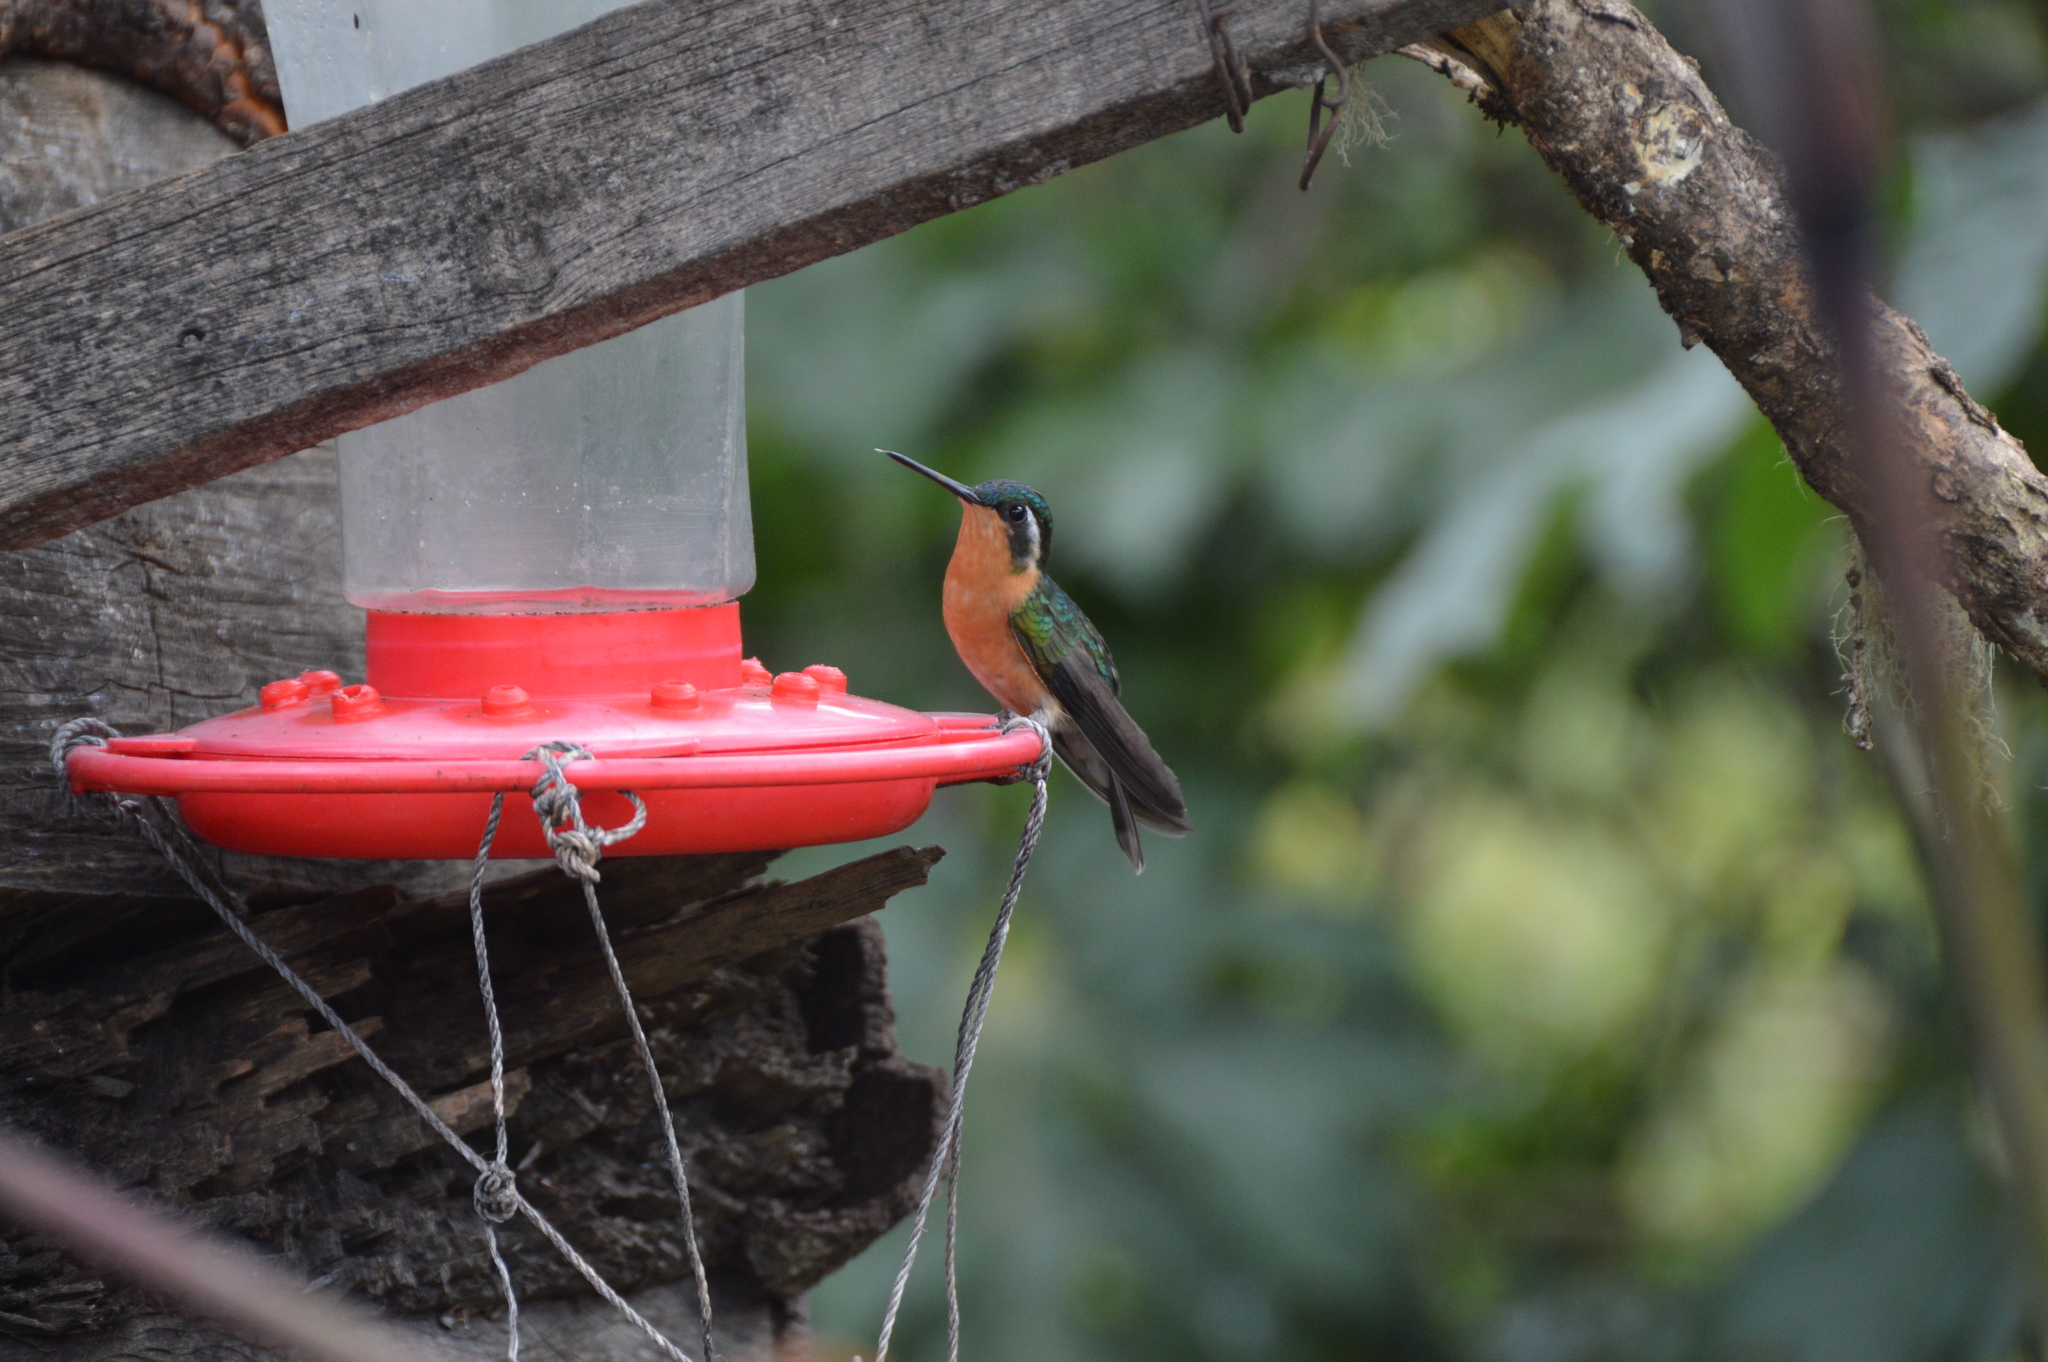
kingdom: Animalia
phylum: Chordata
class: Aves
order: Apodiformes
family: Trochilidae
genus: Lampornis
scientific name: Lampornis cinereicauda
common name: Grey-tailed mountaingem
